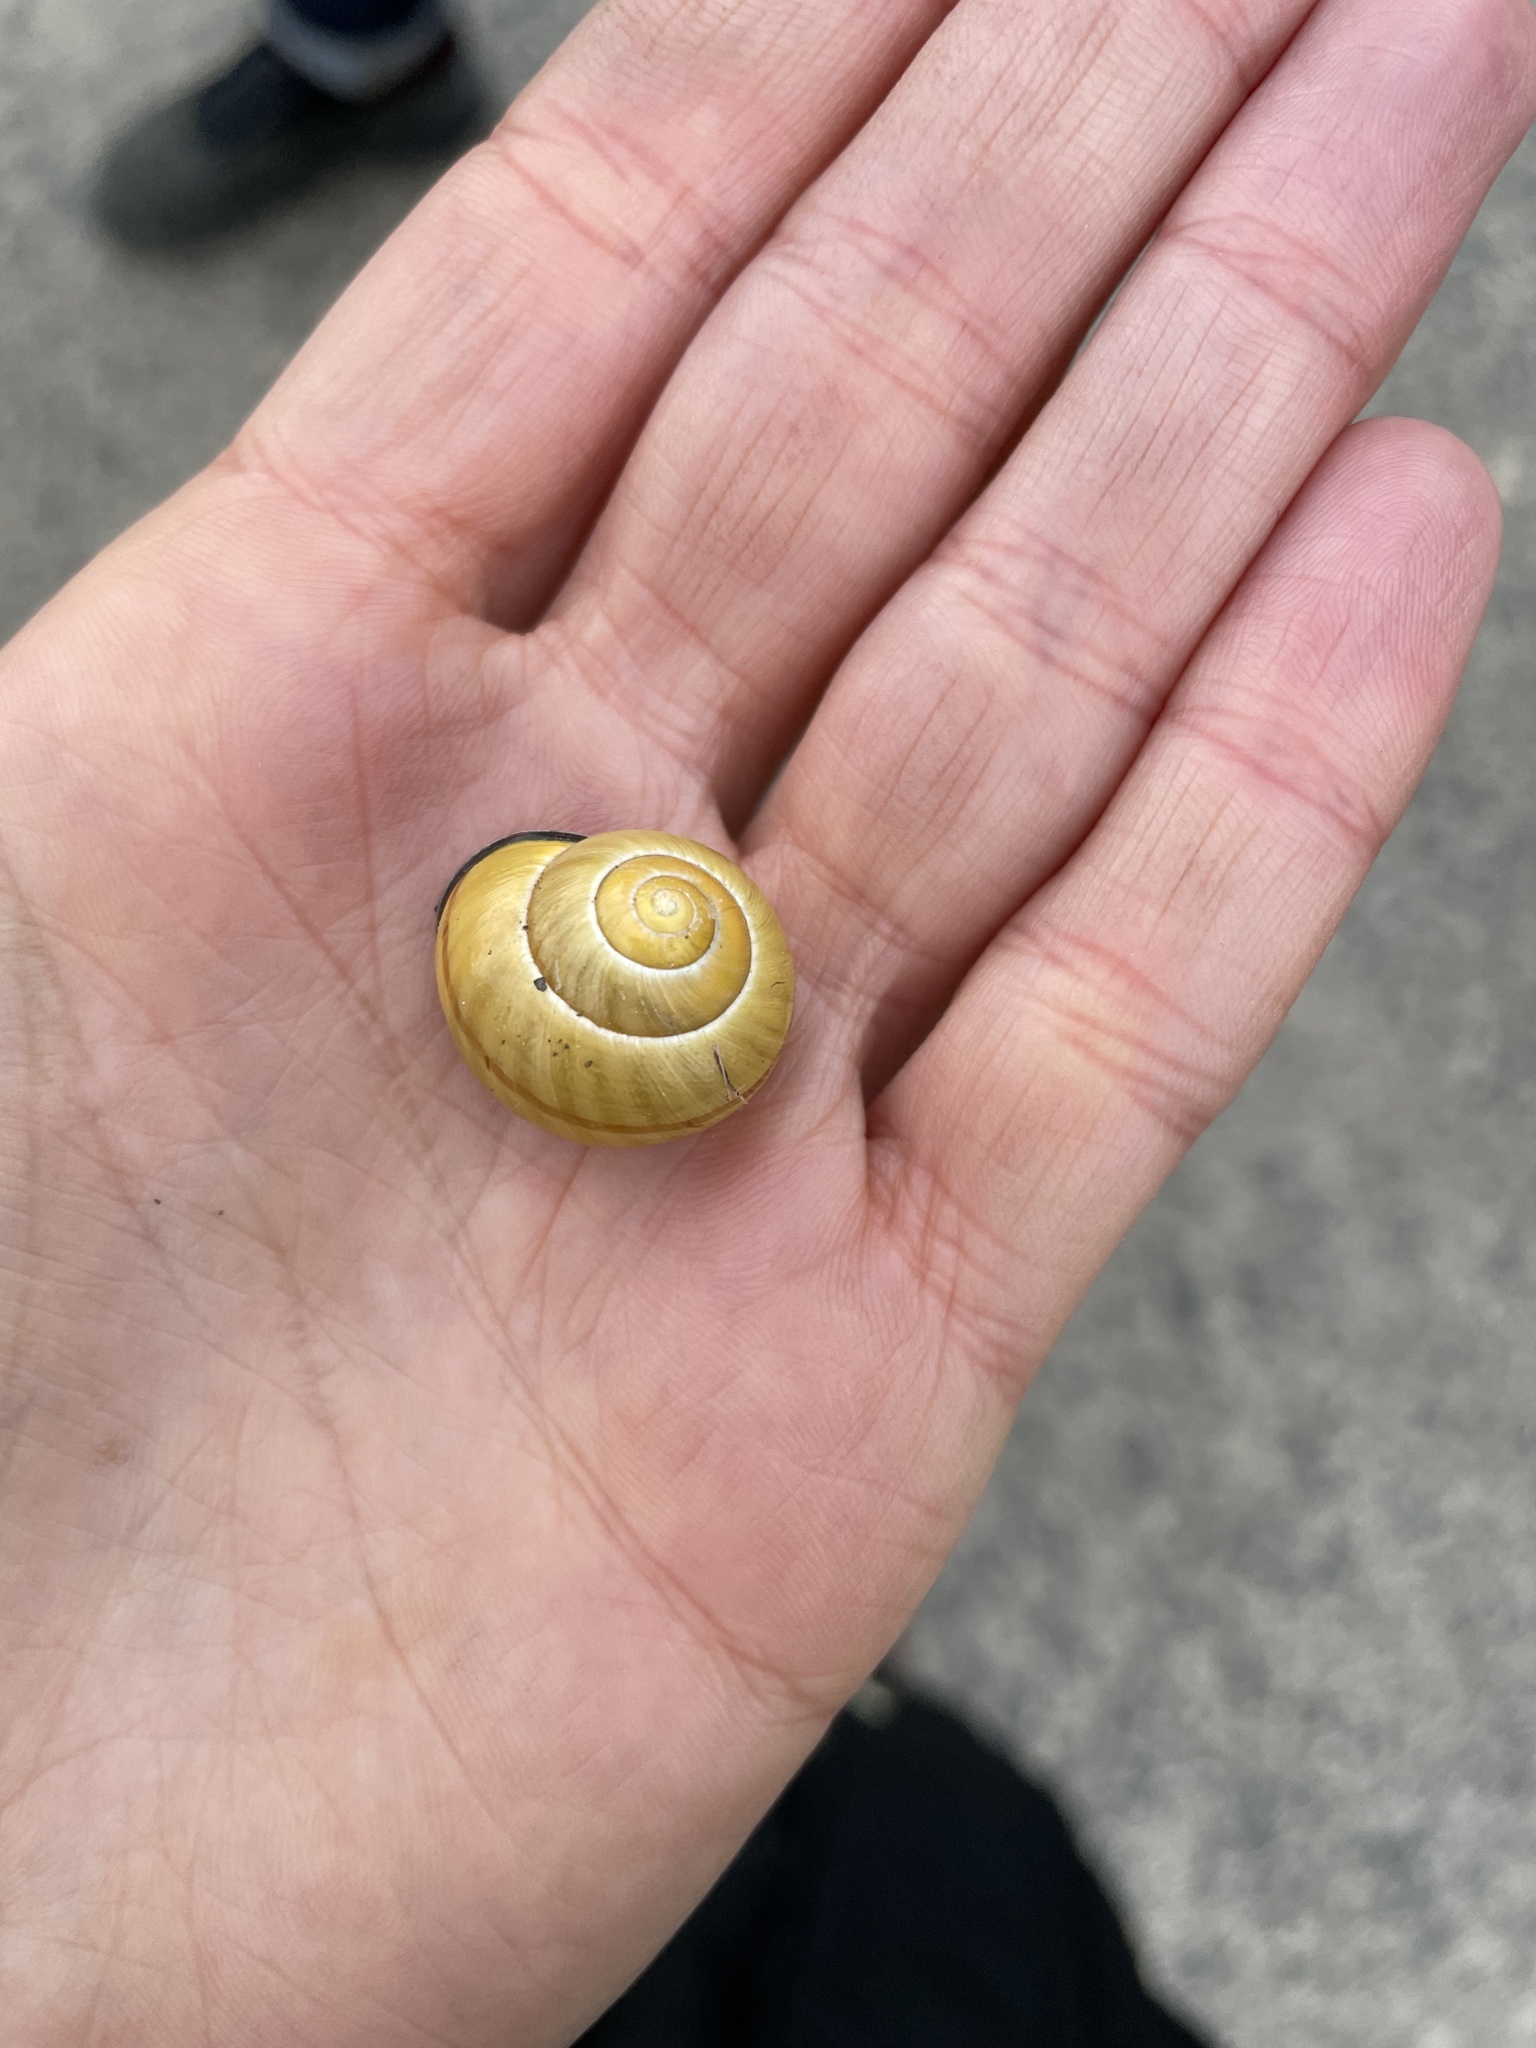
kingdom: Animalia
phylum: Mollusca
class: Gastropoda
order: Stylommatophora
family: Helicidae
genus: Cepaea
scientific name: Cepaea nemoralis
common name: Grovesnail
